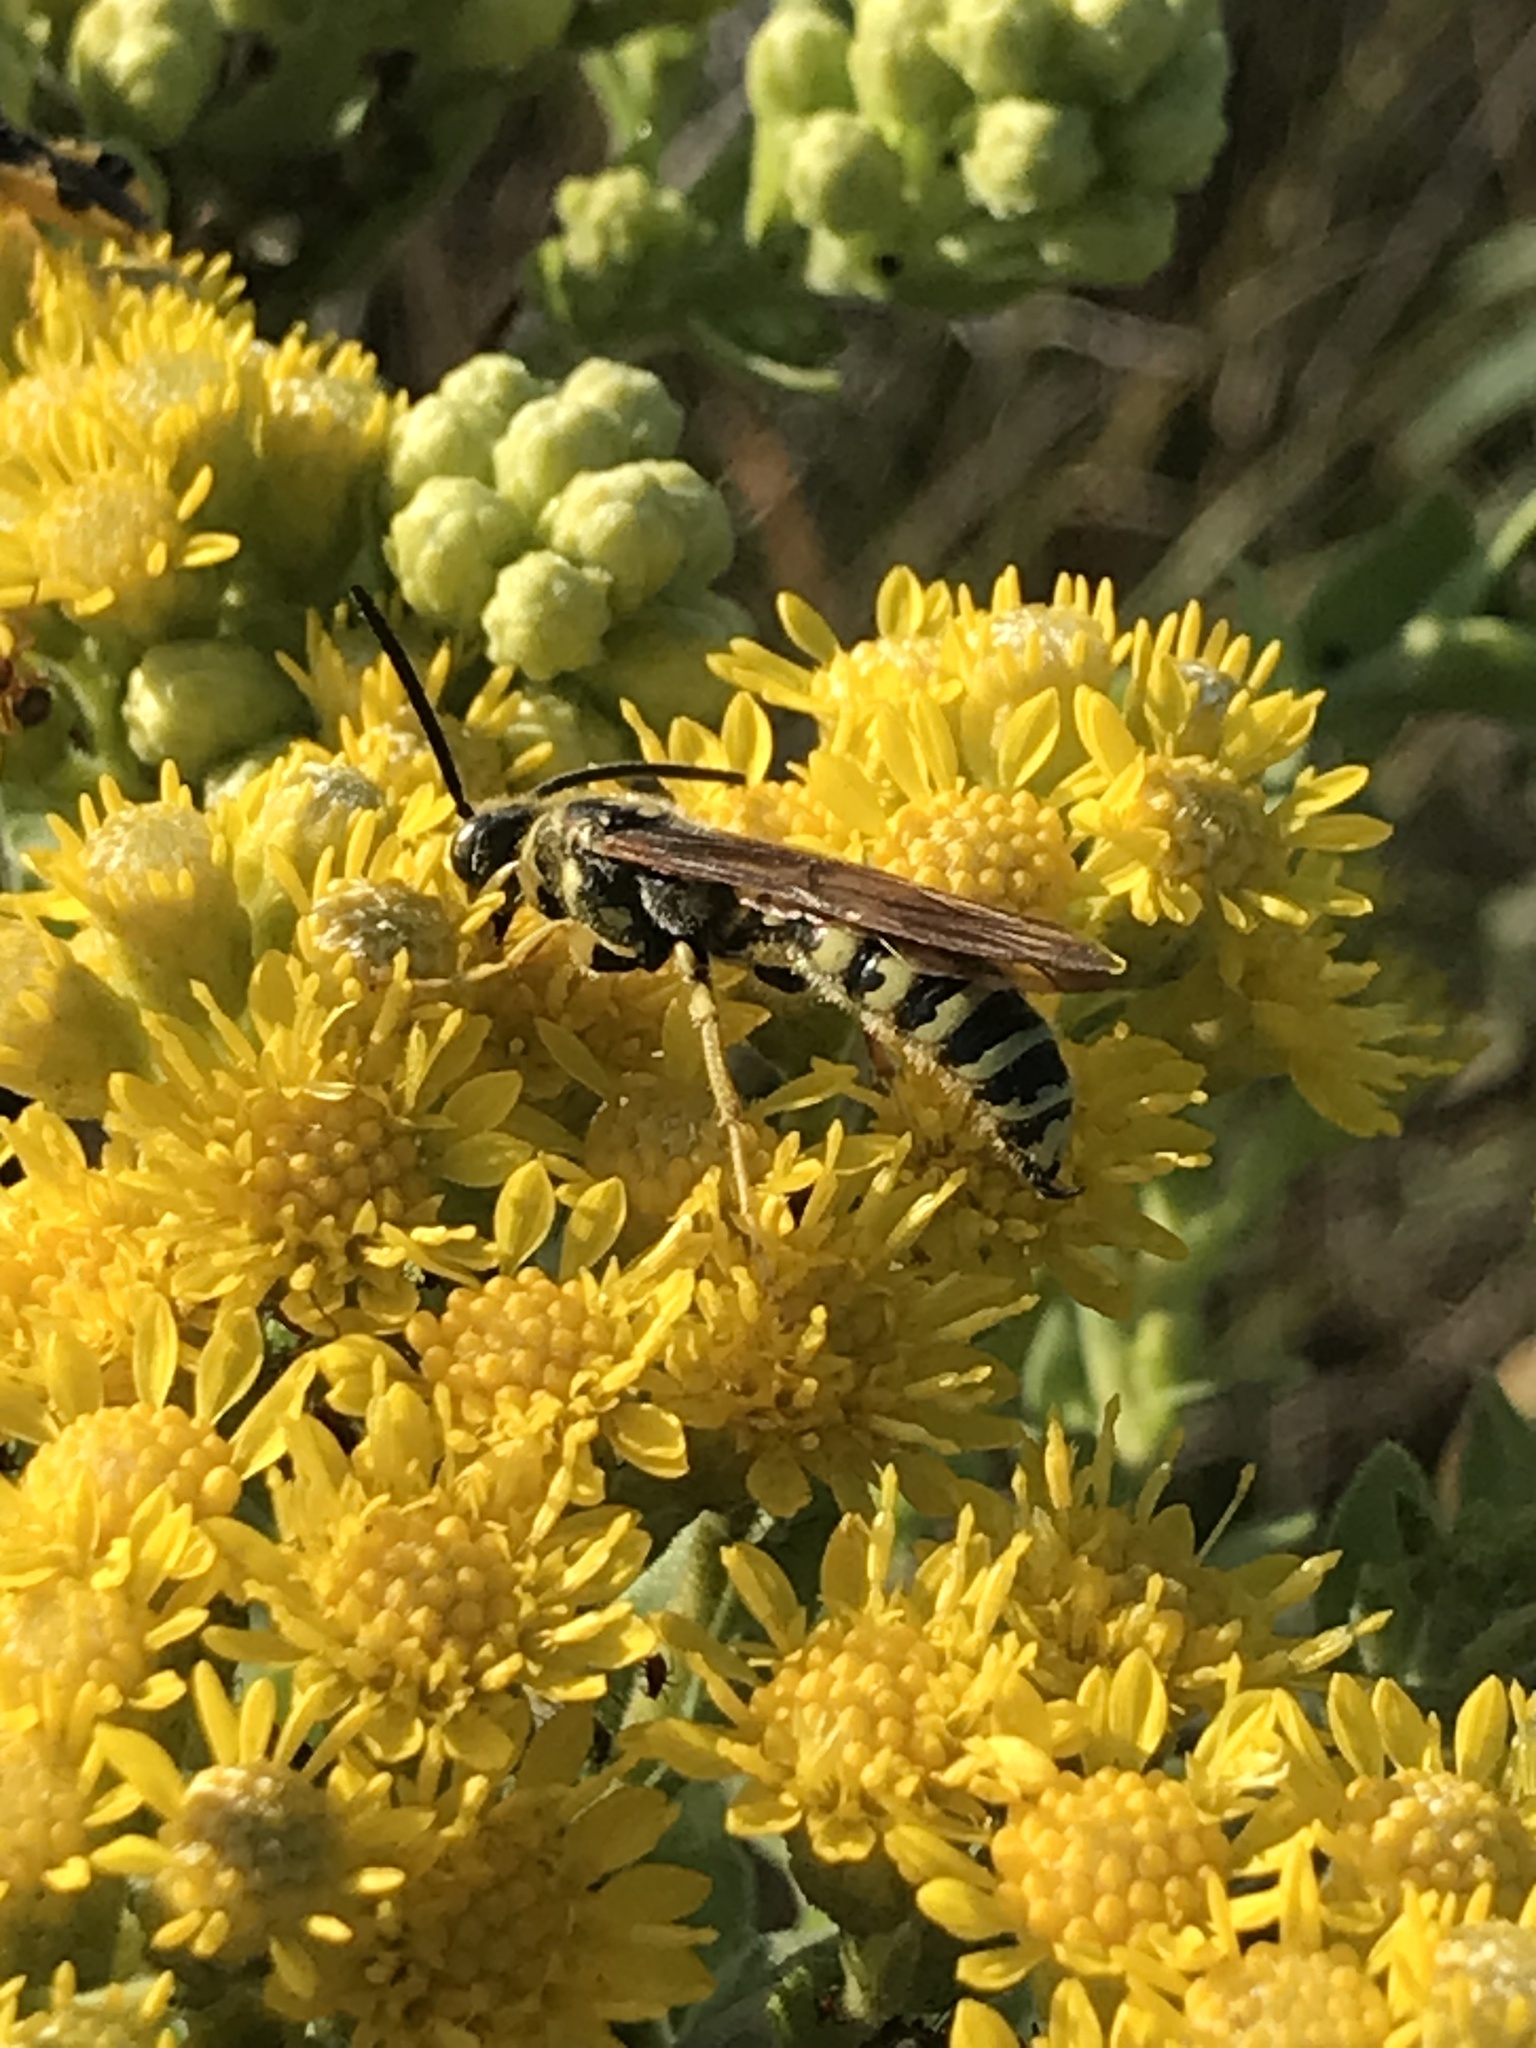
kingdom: Animalia
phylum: Arthropoda
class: Insecta
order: Hymenoptera
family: Tiphiidae
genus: Myzinum
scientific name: Myzinum quinquecinctum
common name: Five-banded thynnid wasp
